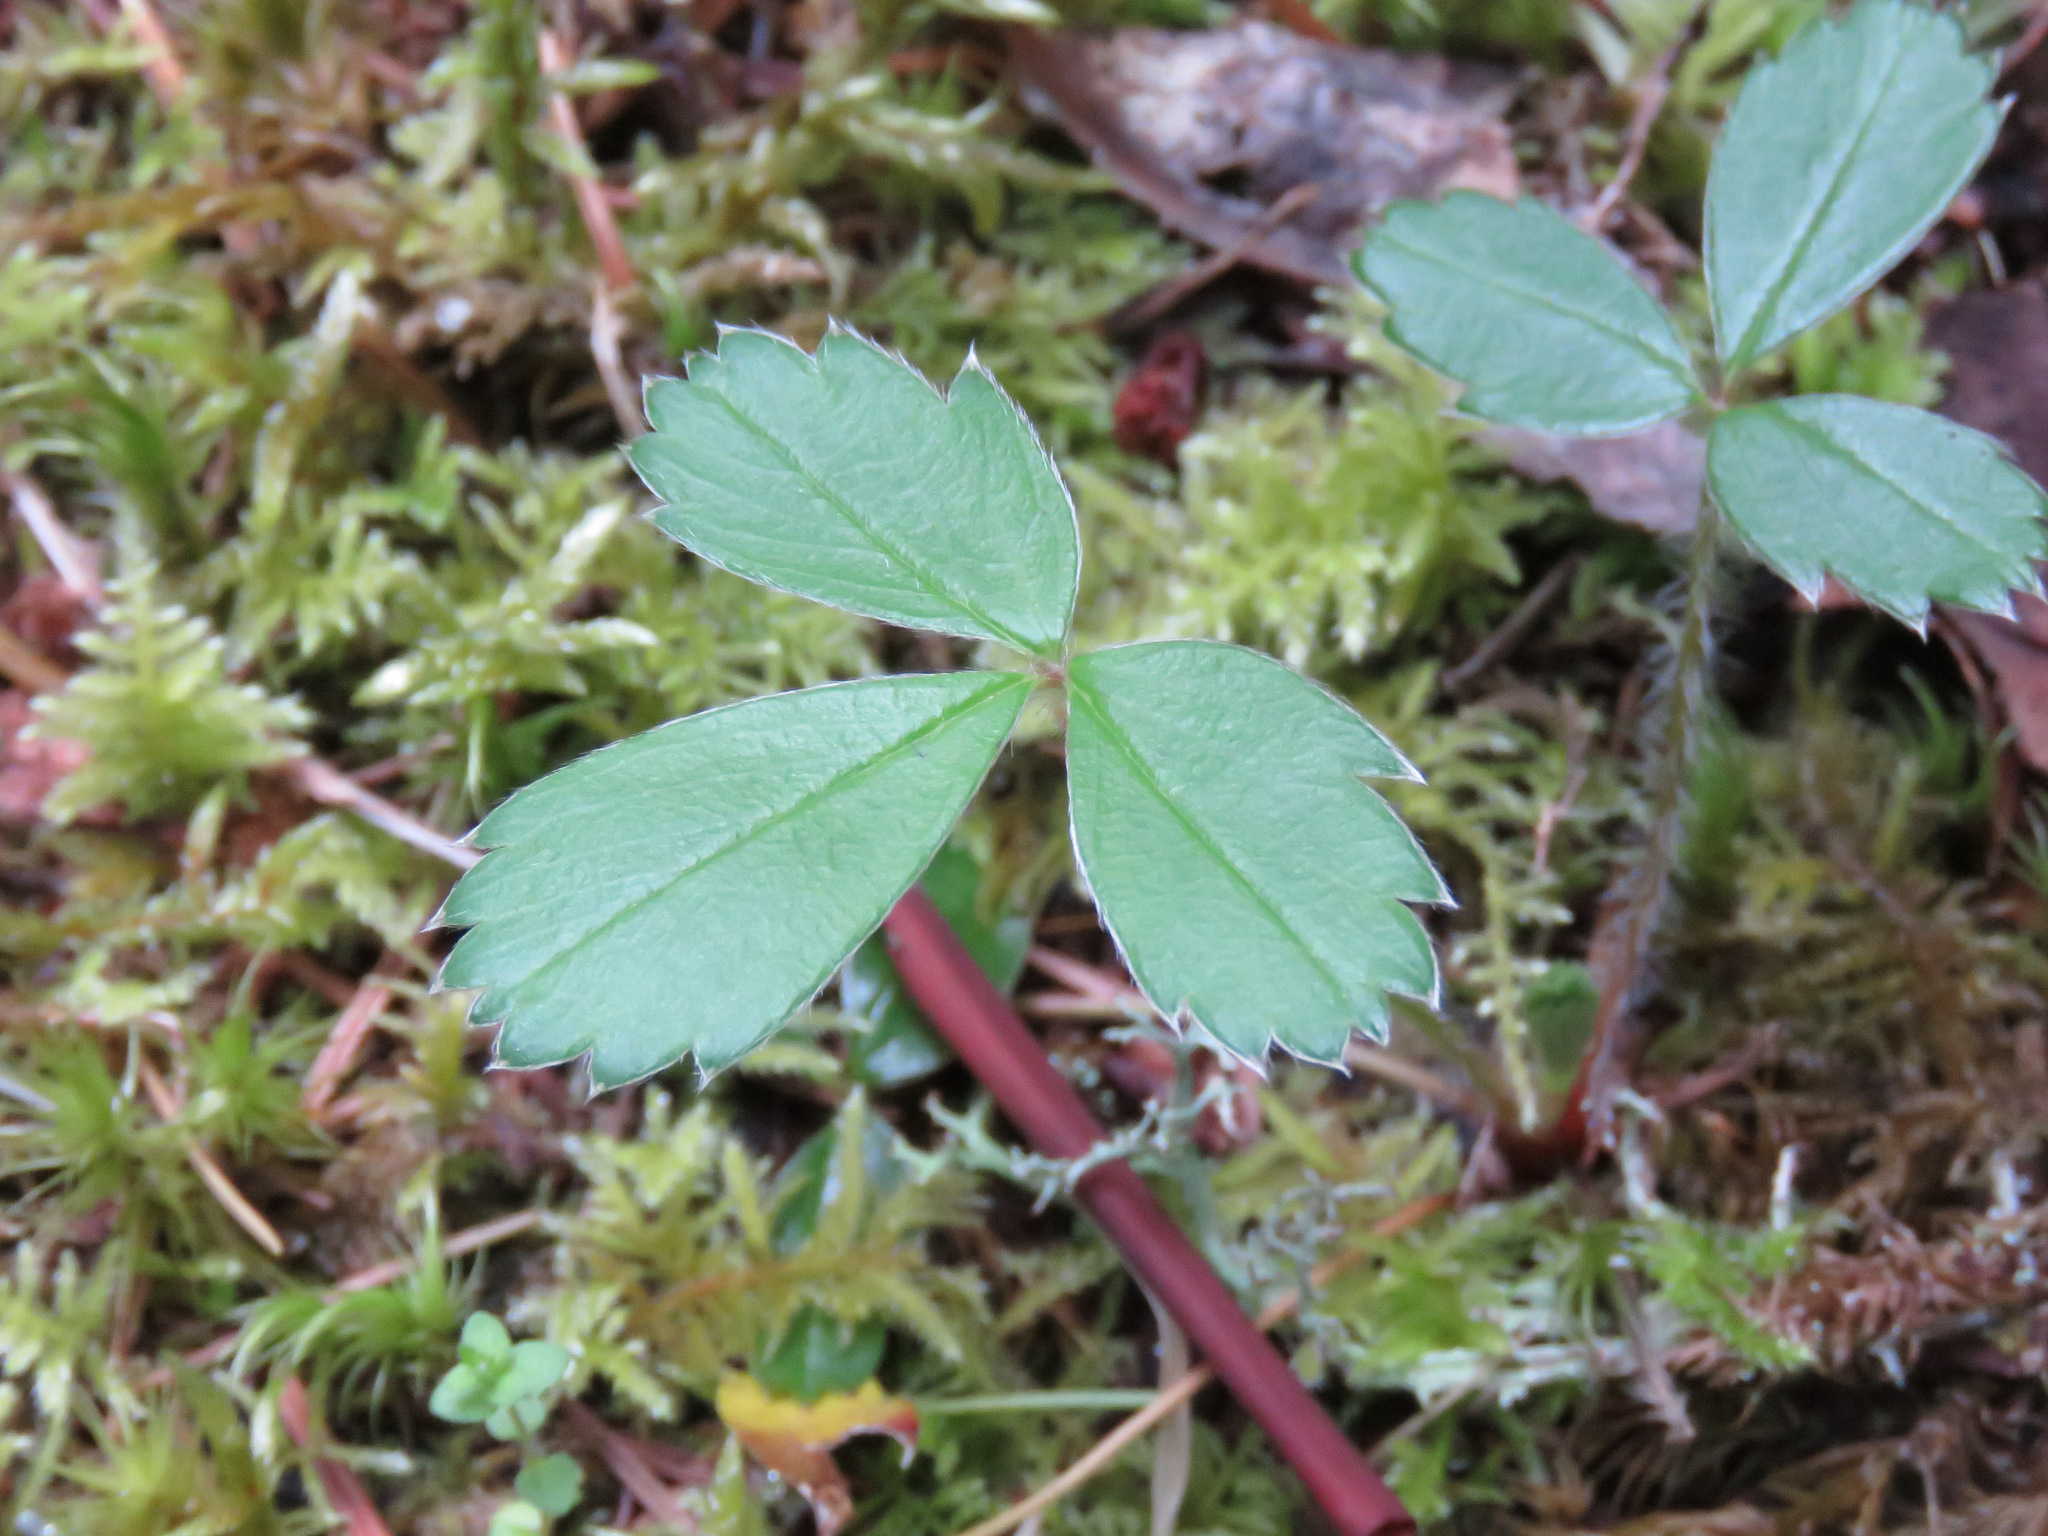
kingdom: Plantae
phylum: Tracheophyta
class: Magnoliopsida
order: Rosales
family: Rosaceae
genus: Fragaria
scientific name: Fragaria virginiana
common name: Thickleaved wild strawberry
